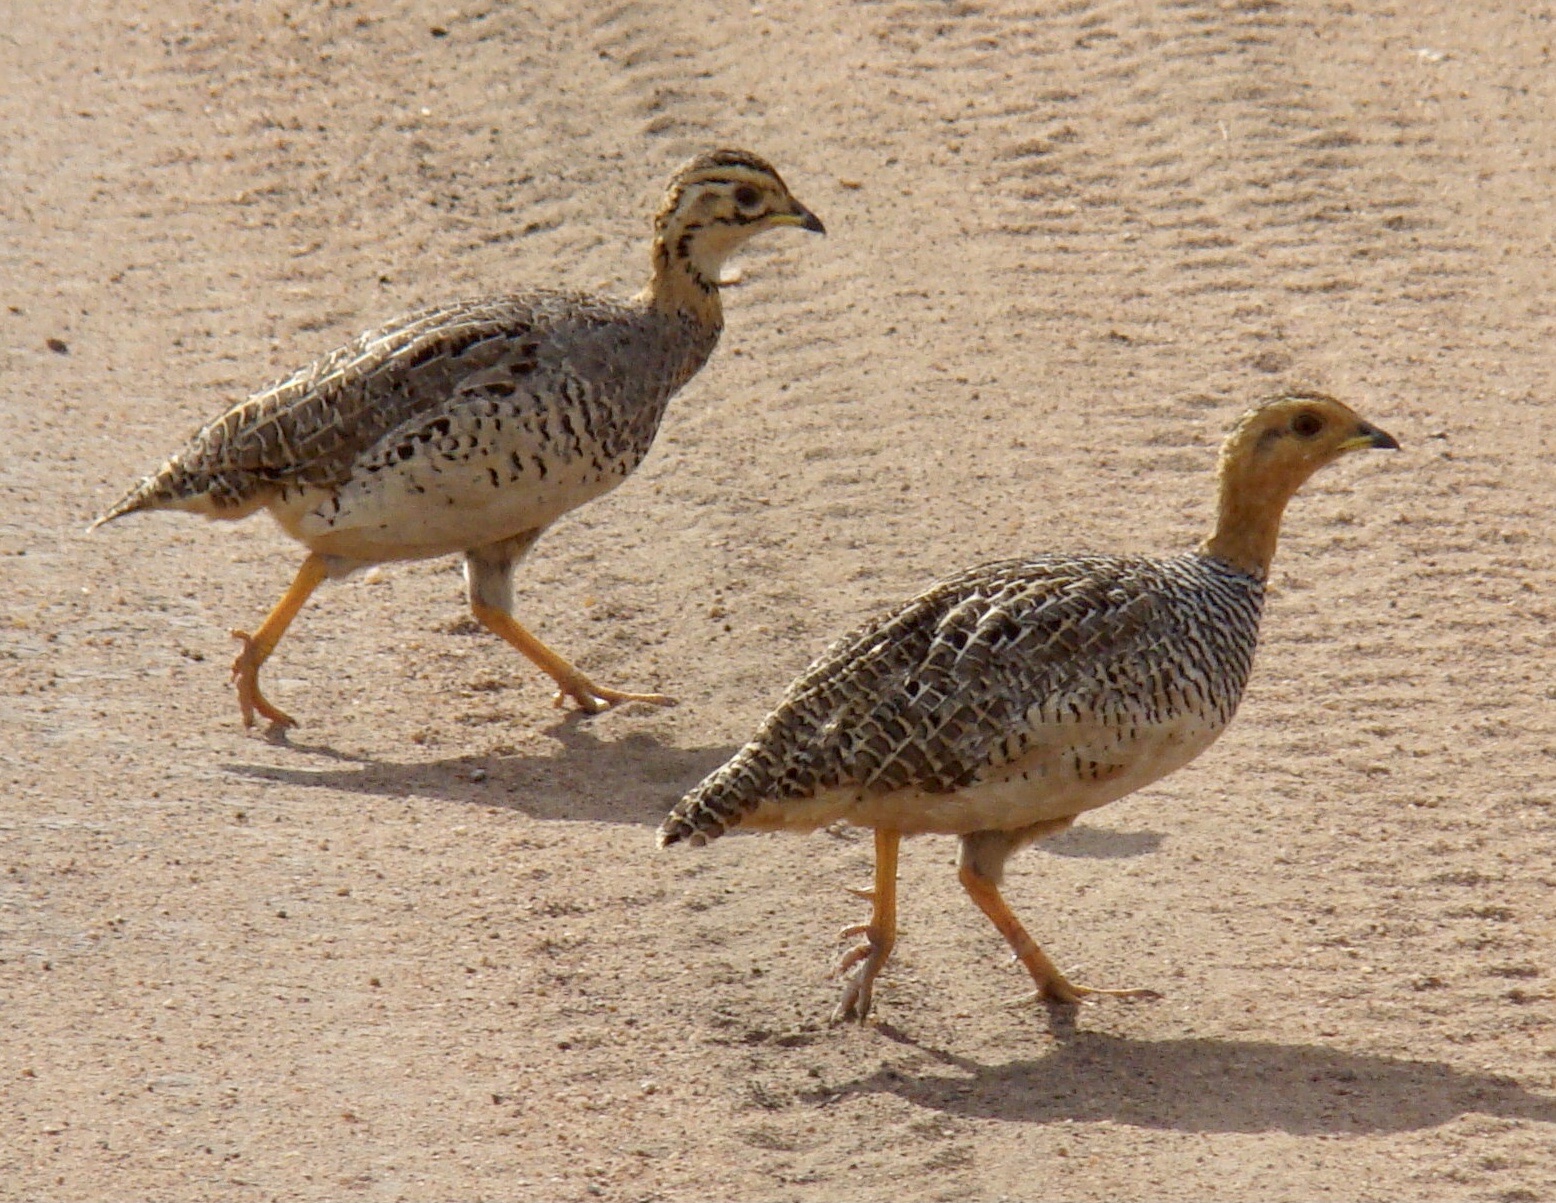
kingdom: Animalia
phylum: Chordata
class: Aves
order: Galliformes
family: Phasianidae
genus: Campocolinus
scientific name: Campocolinus coqui
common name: Coqui francolin
